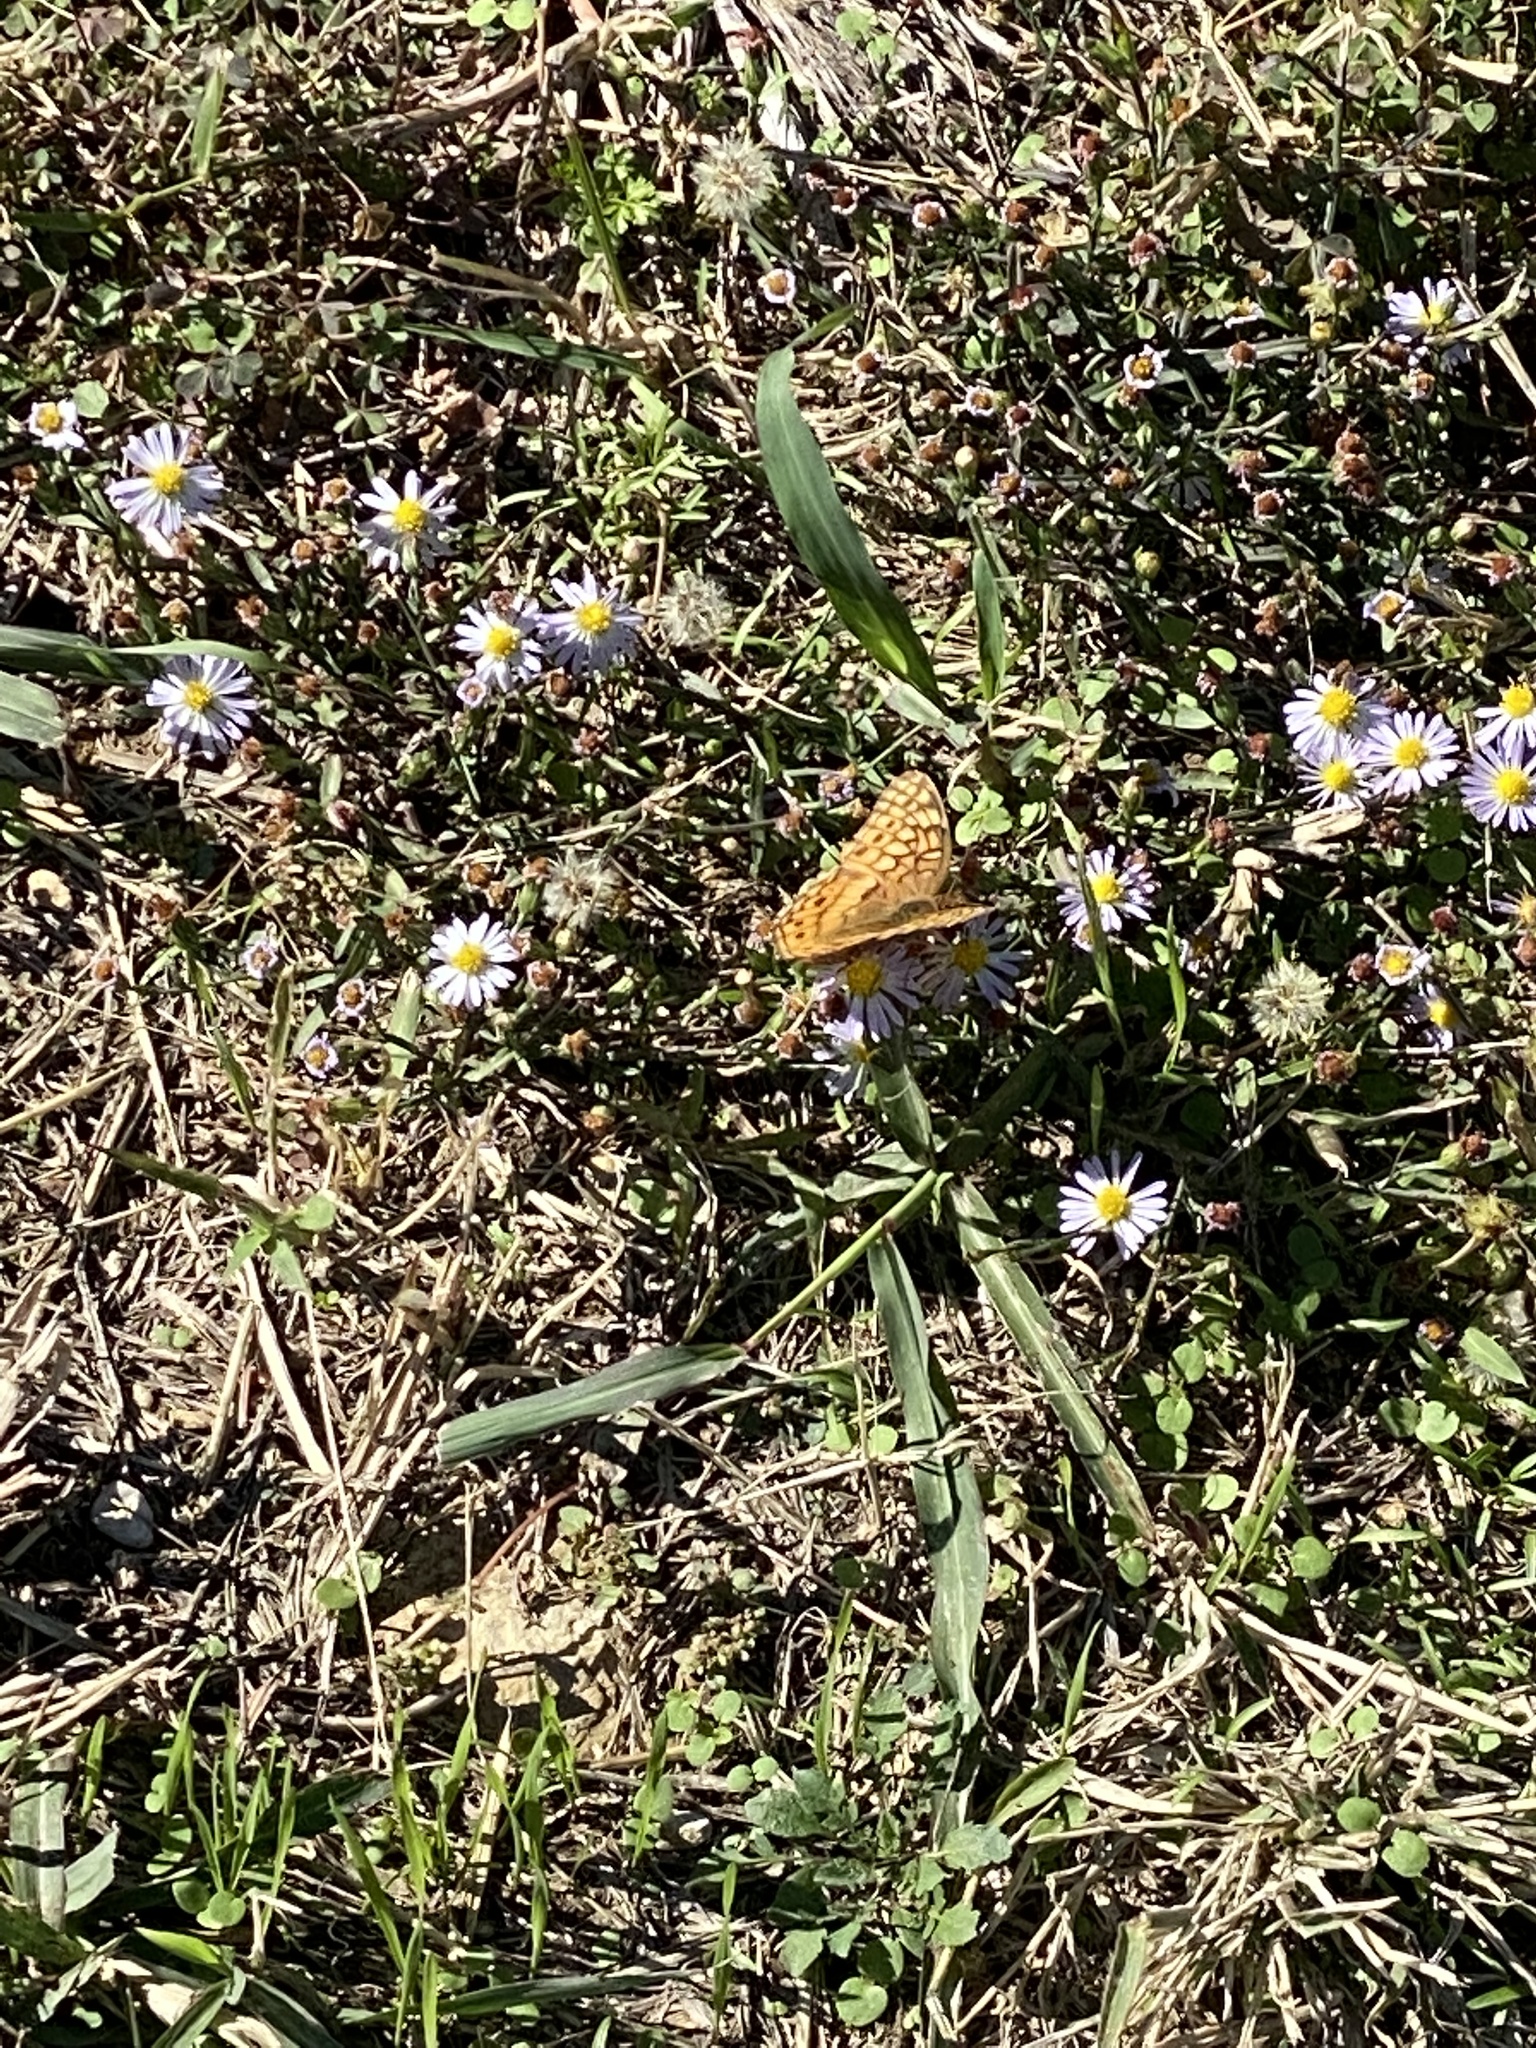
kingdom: Animalia
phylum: Arthropoda
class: Insecta
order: Lepidoptera
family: Nymphalidae
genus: Euptoieta
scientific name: Euptoieta claudia
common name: Variegated fritillary
